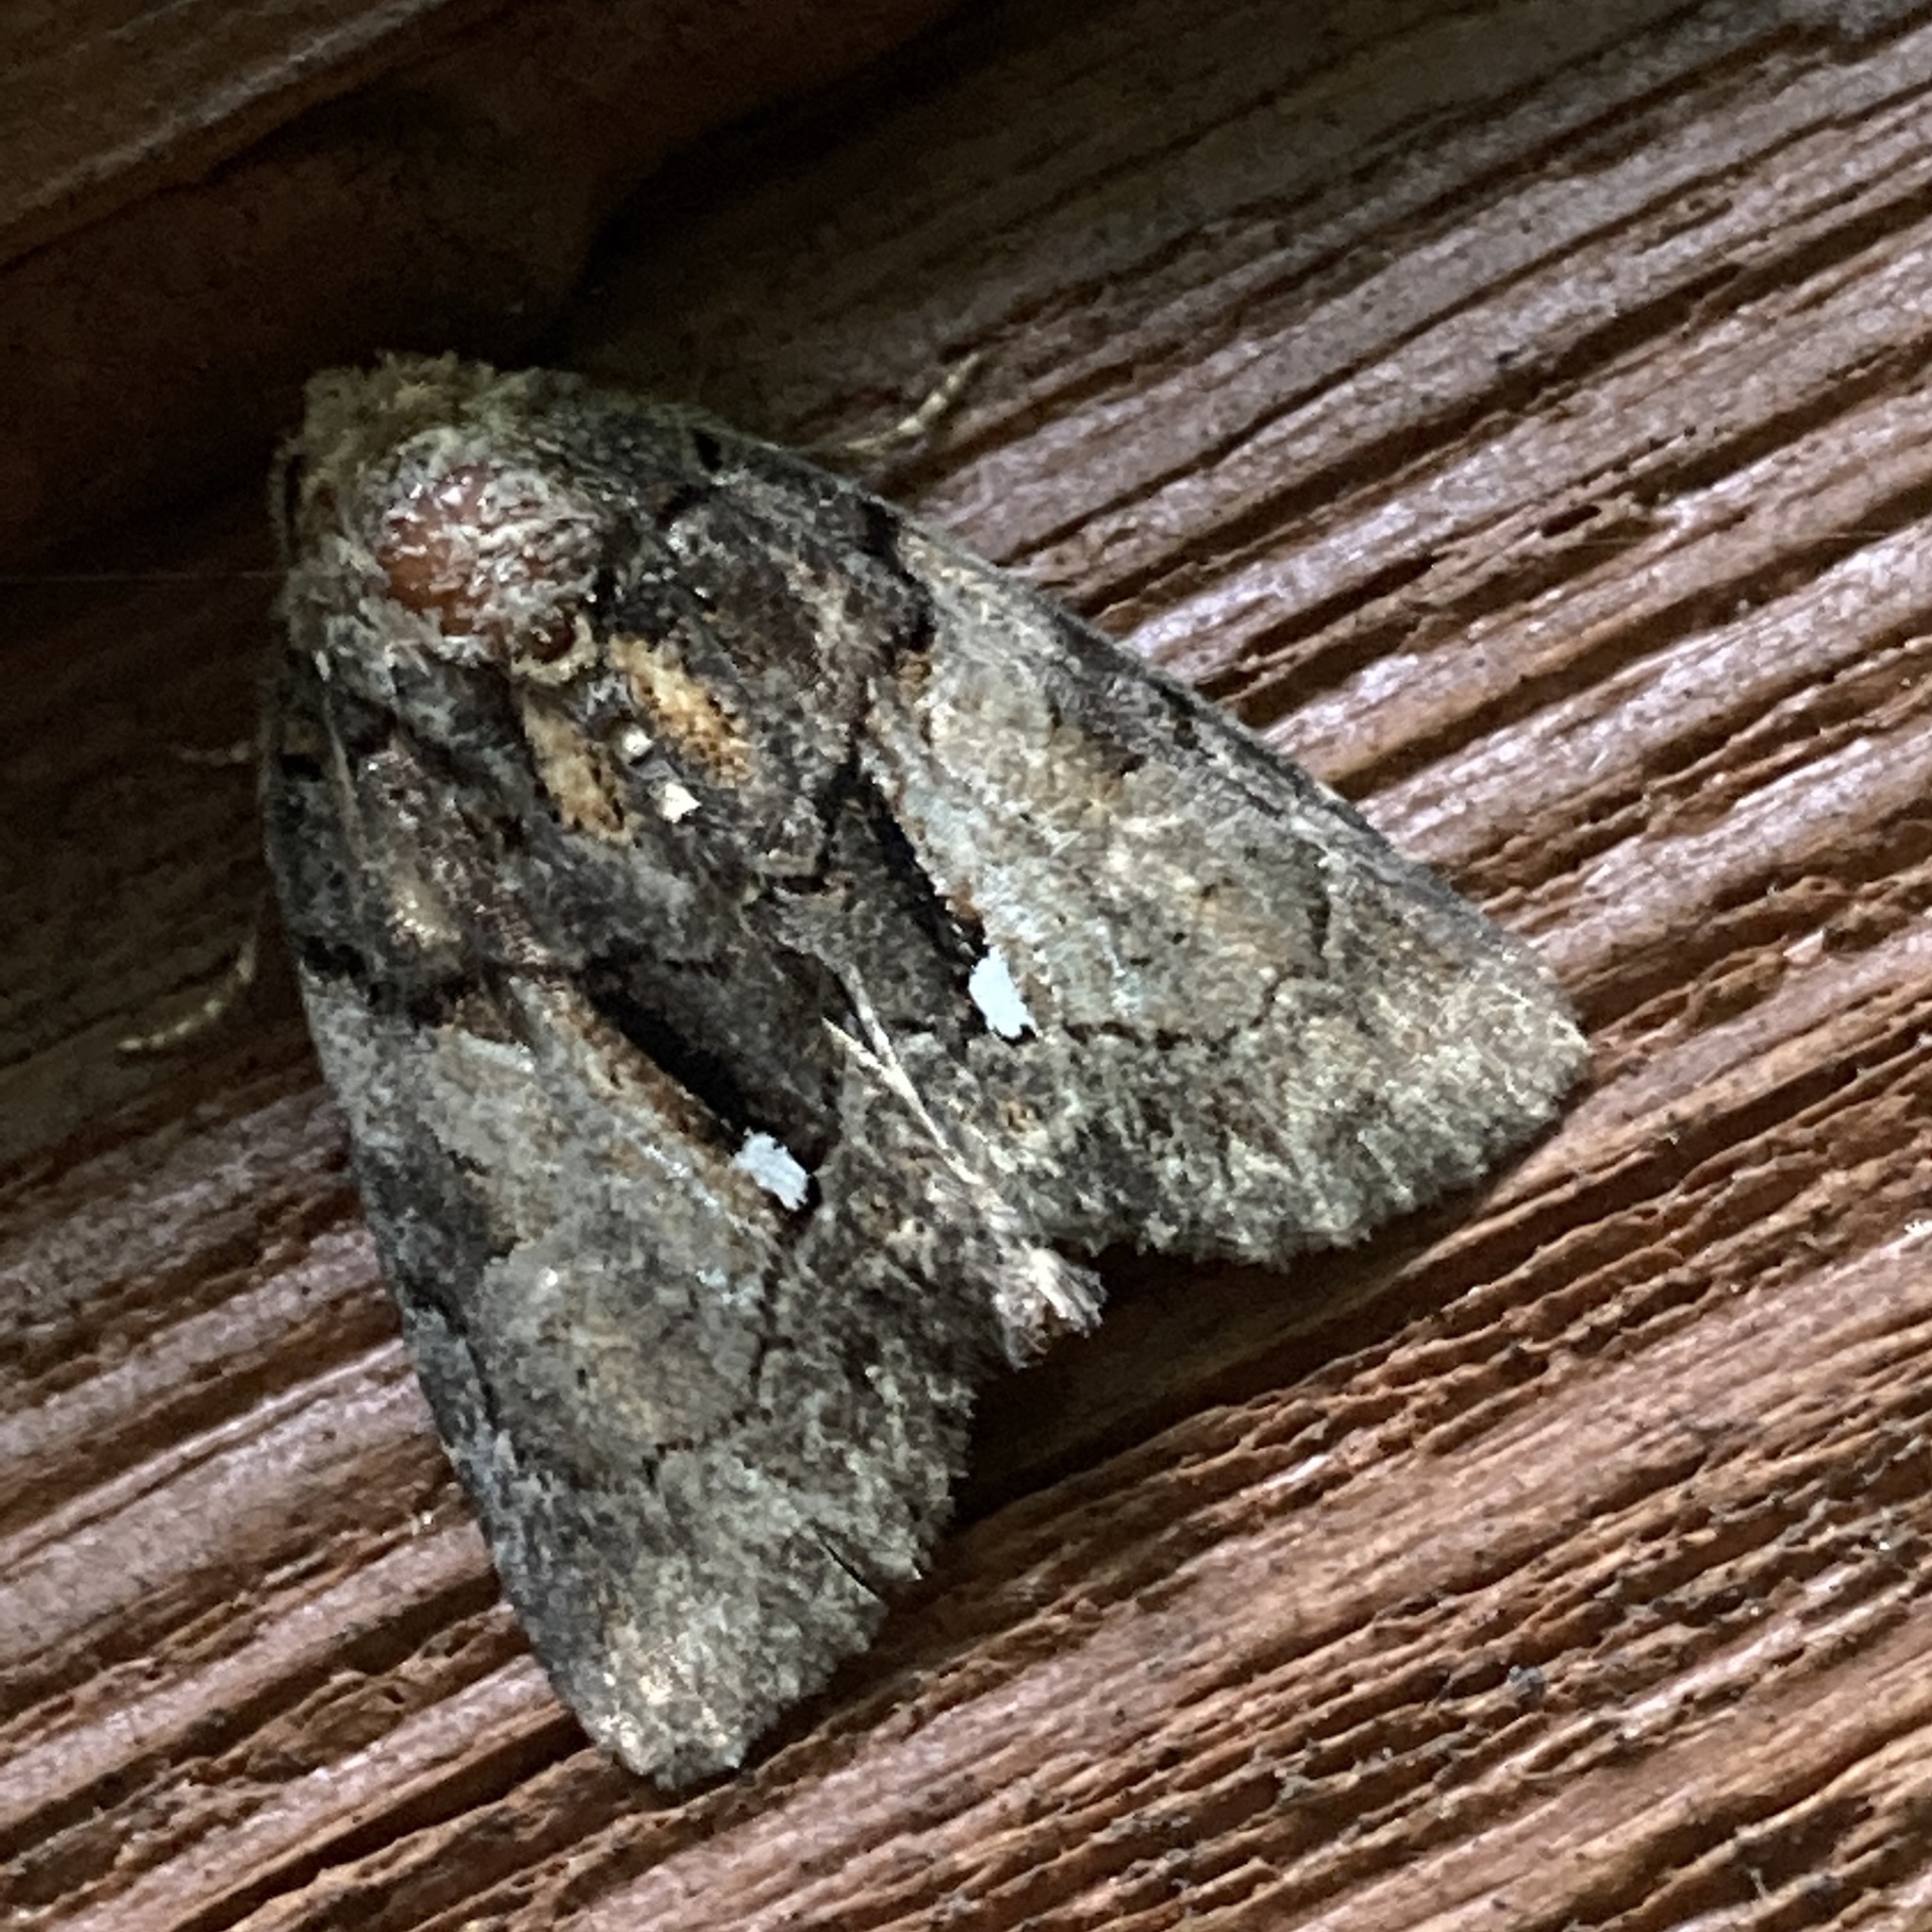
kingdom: Animalia
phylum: Arthropoda
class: Insecta
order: Lepidoptera
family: Noctuidae
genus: Chytonix
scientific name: Chytonix palliatricula
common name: Cloaked marvel
